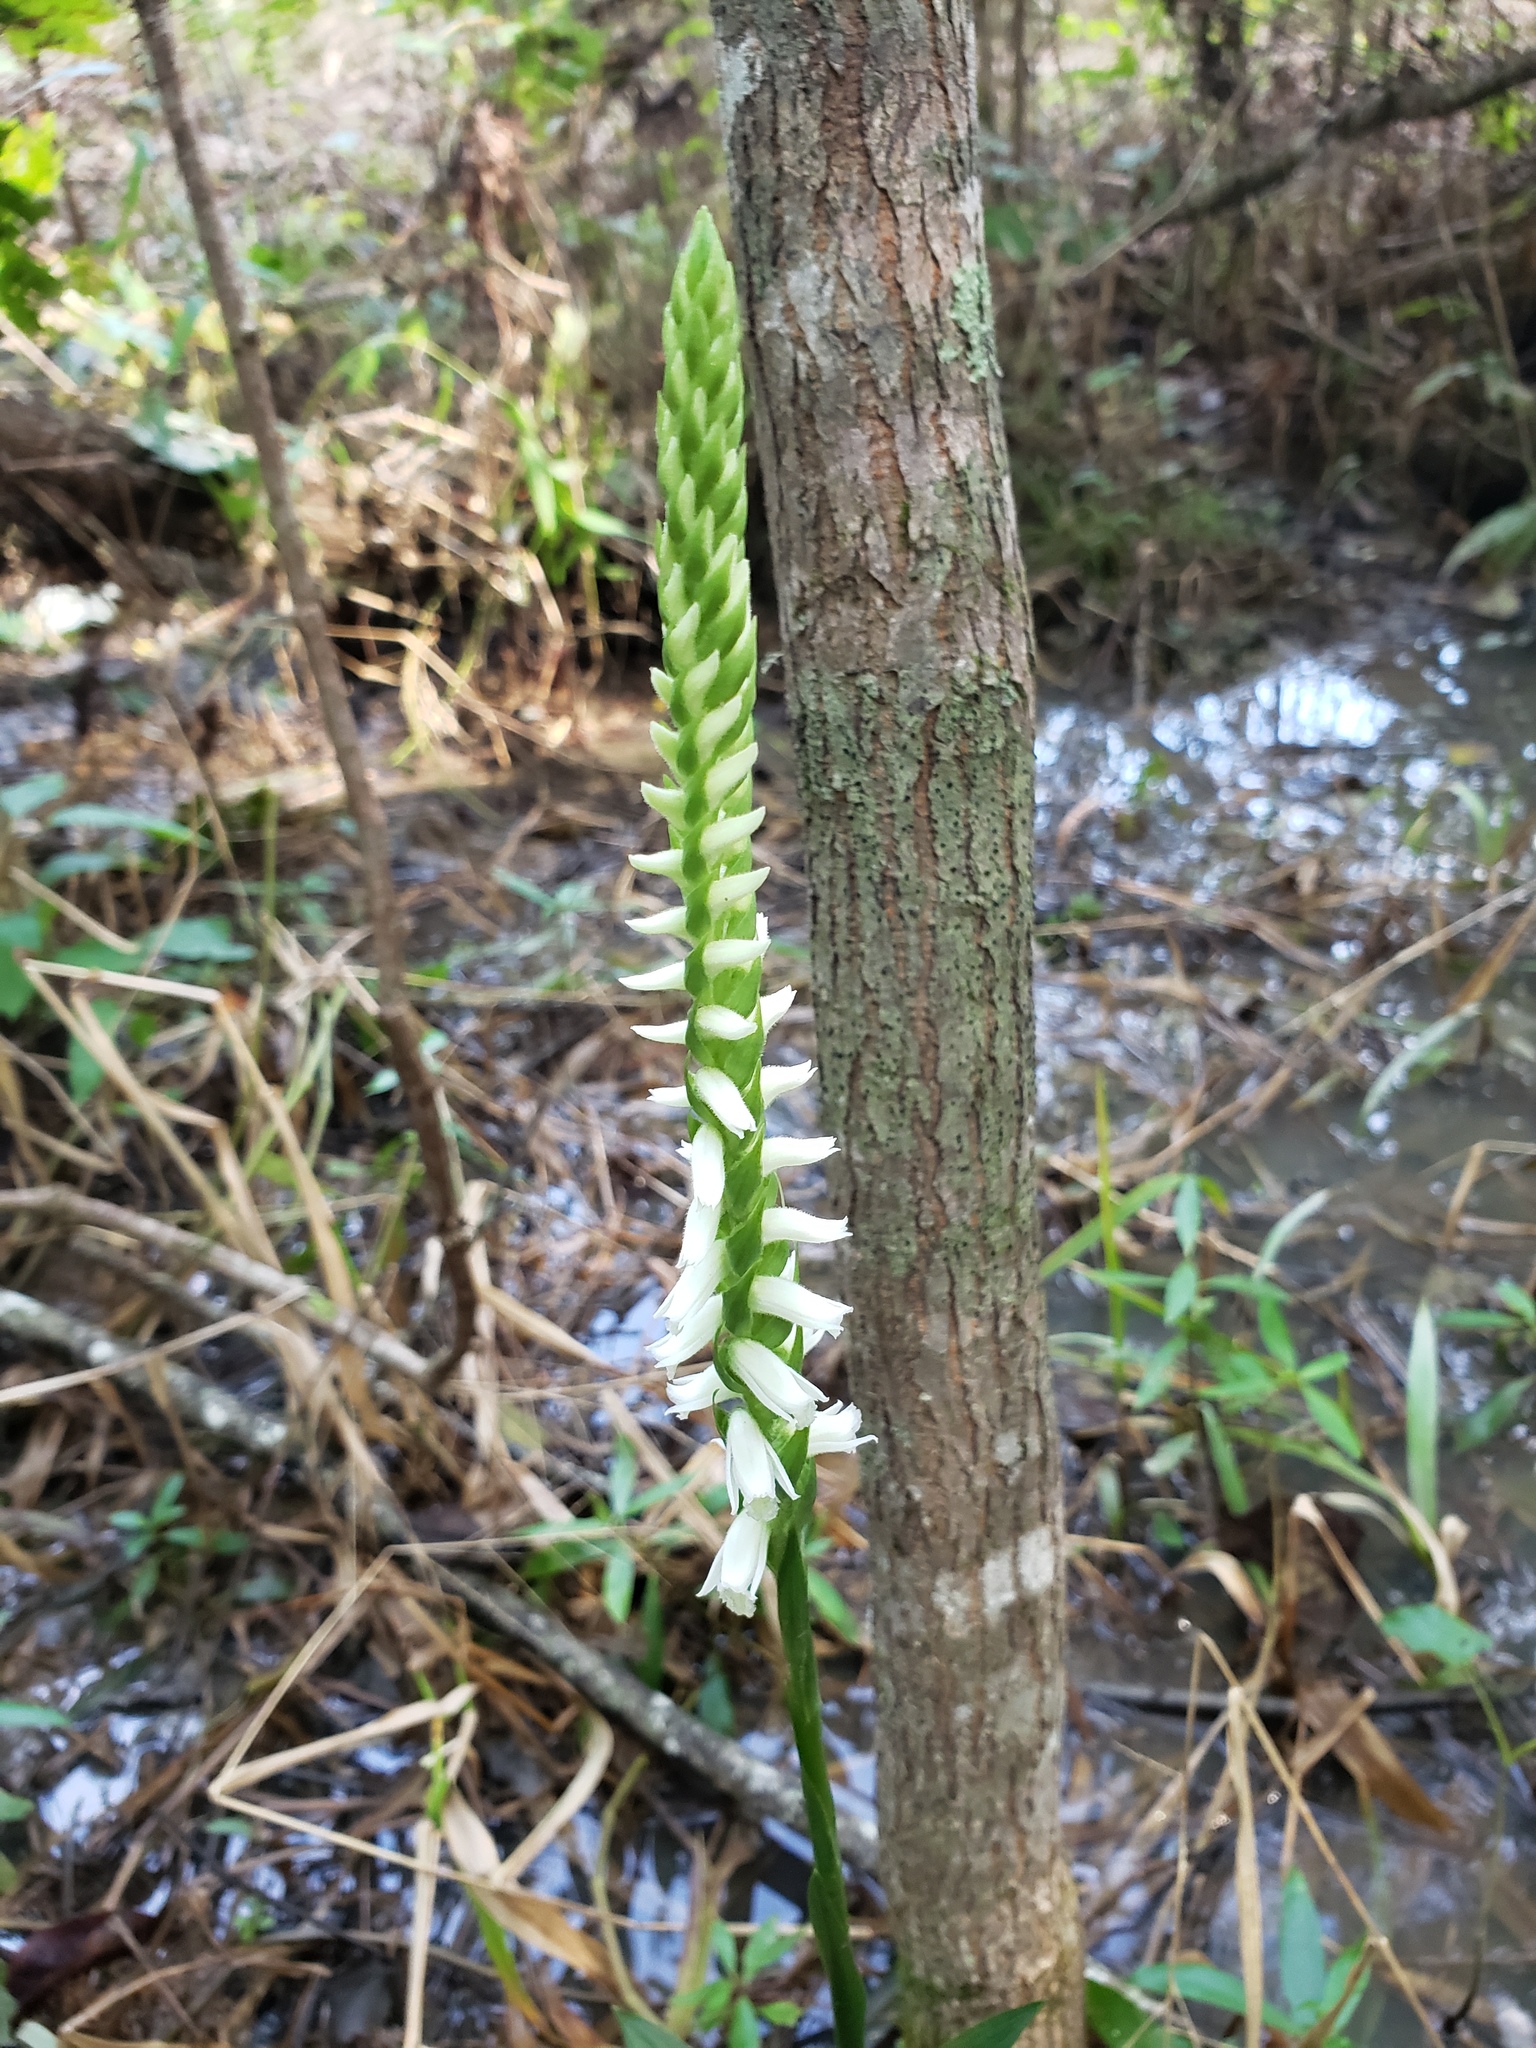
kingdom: Plantae
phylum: Tracheophyta
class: Liliopsida
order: Asparagales
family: Orchidaceae
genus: Spiranthes
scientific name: Spiranthes odorata
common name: Marsh ladies'-tresses
